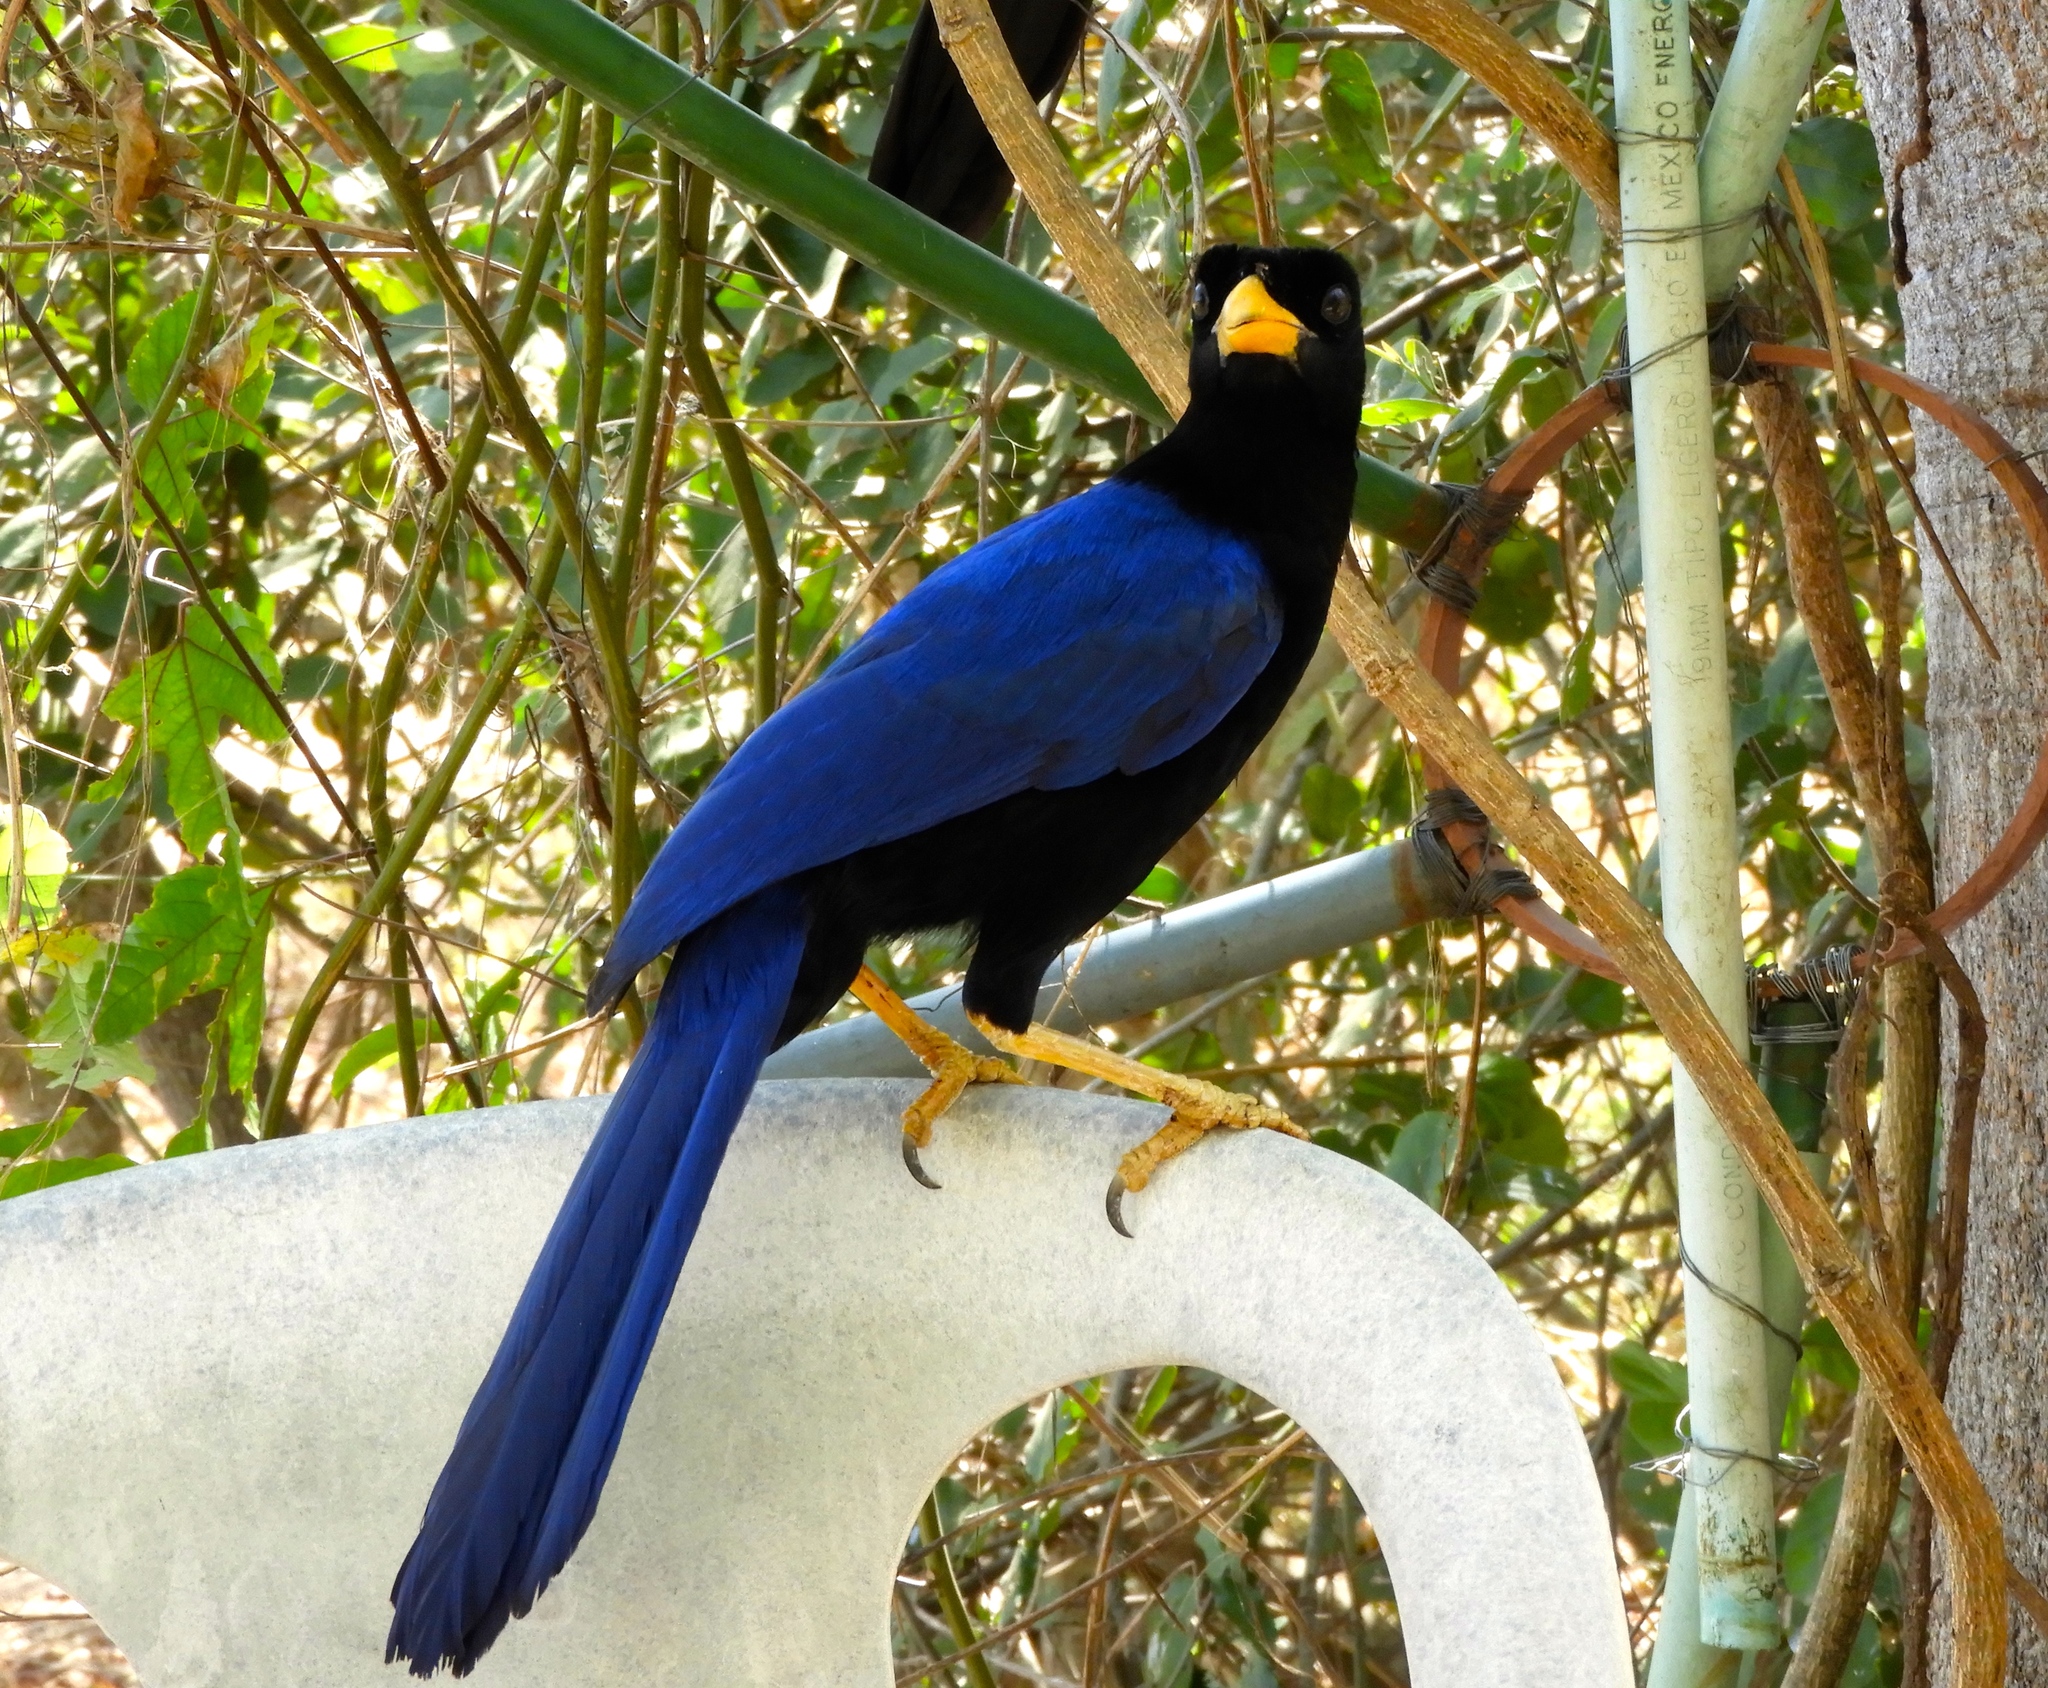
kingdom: Animalia
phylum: Chordata
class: Aves
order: Passeriformes
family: Corvidae
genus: Cyanocorax
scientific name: Cyanocorax beecheii
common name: Purplish-backed jay
